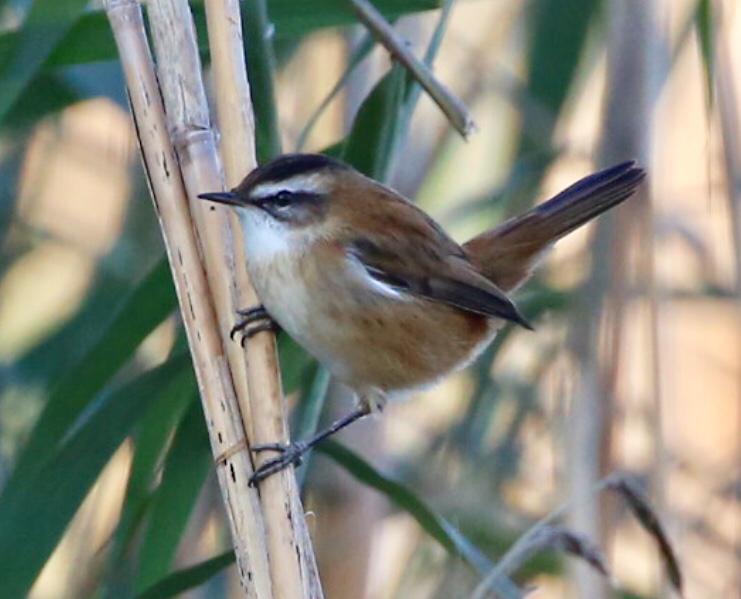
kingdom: Animalia
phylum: Chordata
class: Aves
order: Passeriformes
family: Acrocephalidae
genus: Acrocephalus
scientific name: Acrocephalus melanopogon
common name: Moustached warbler
